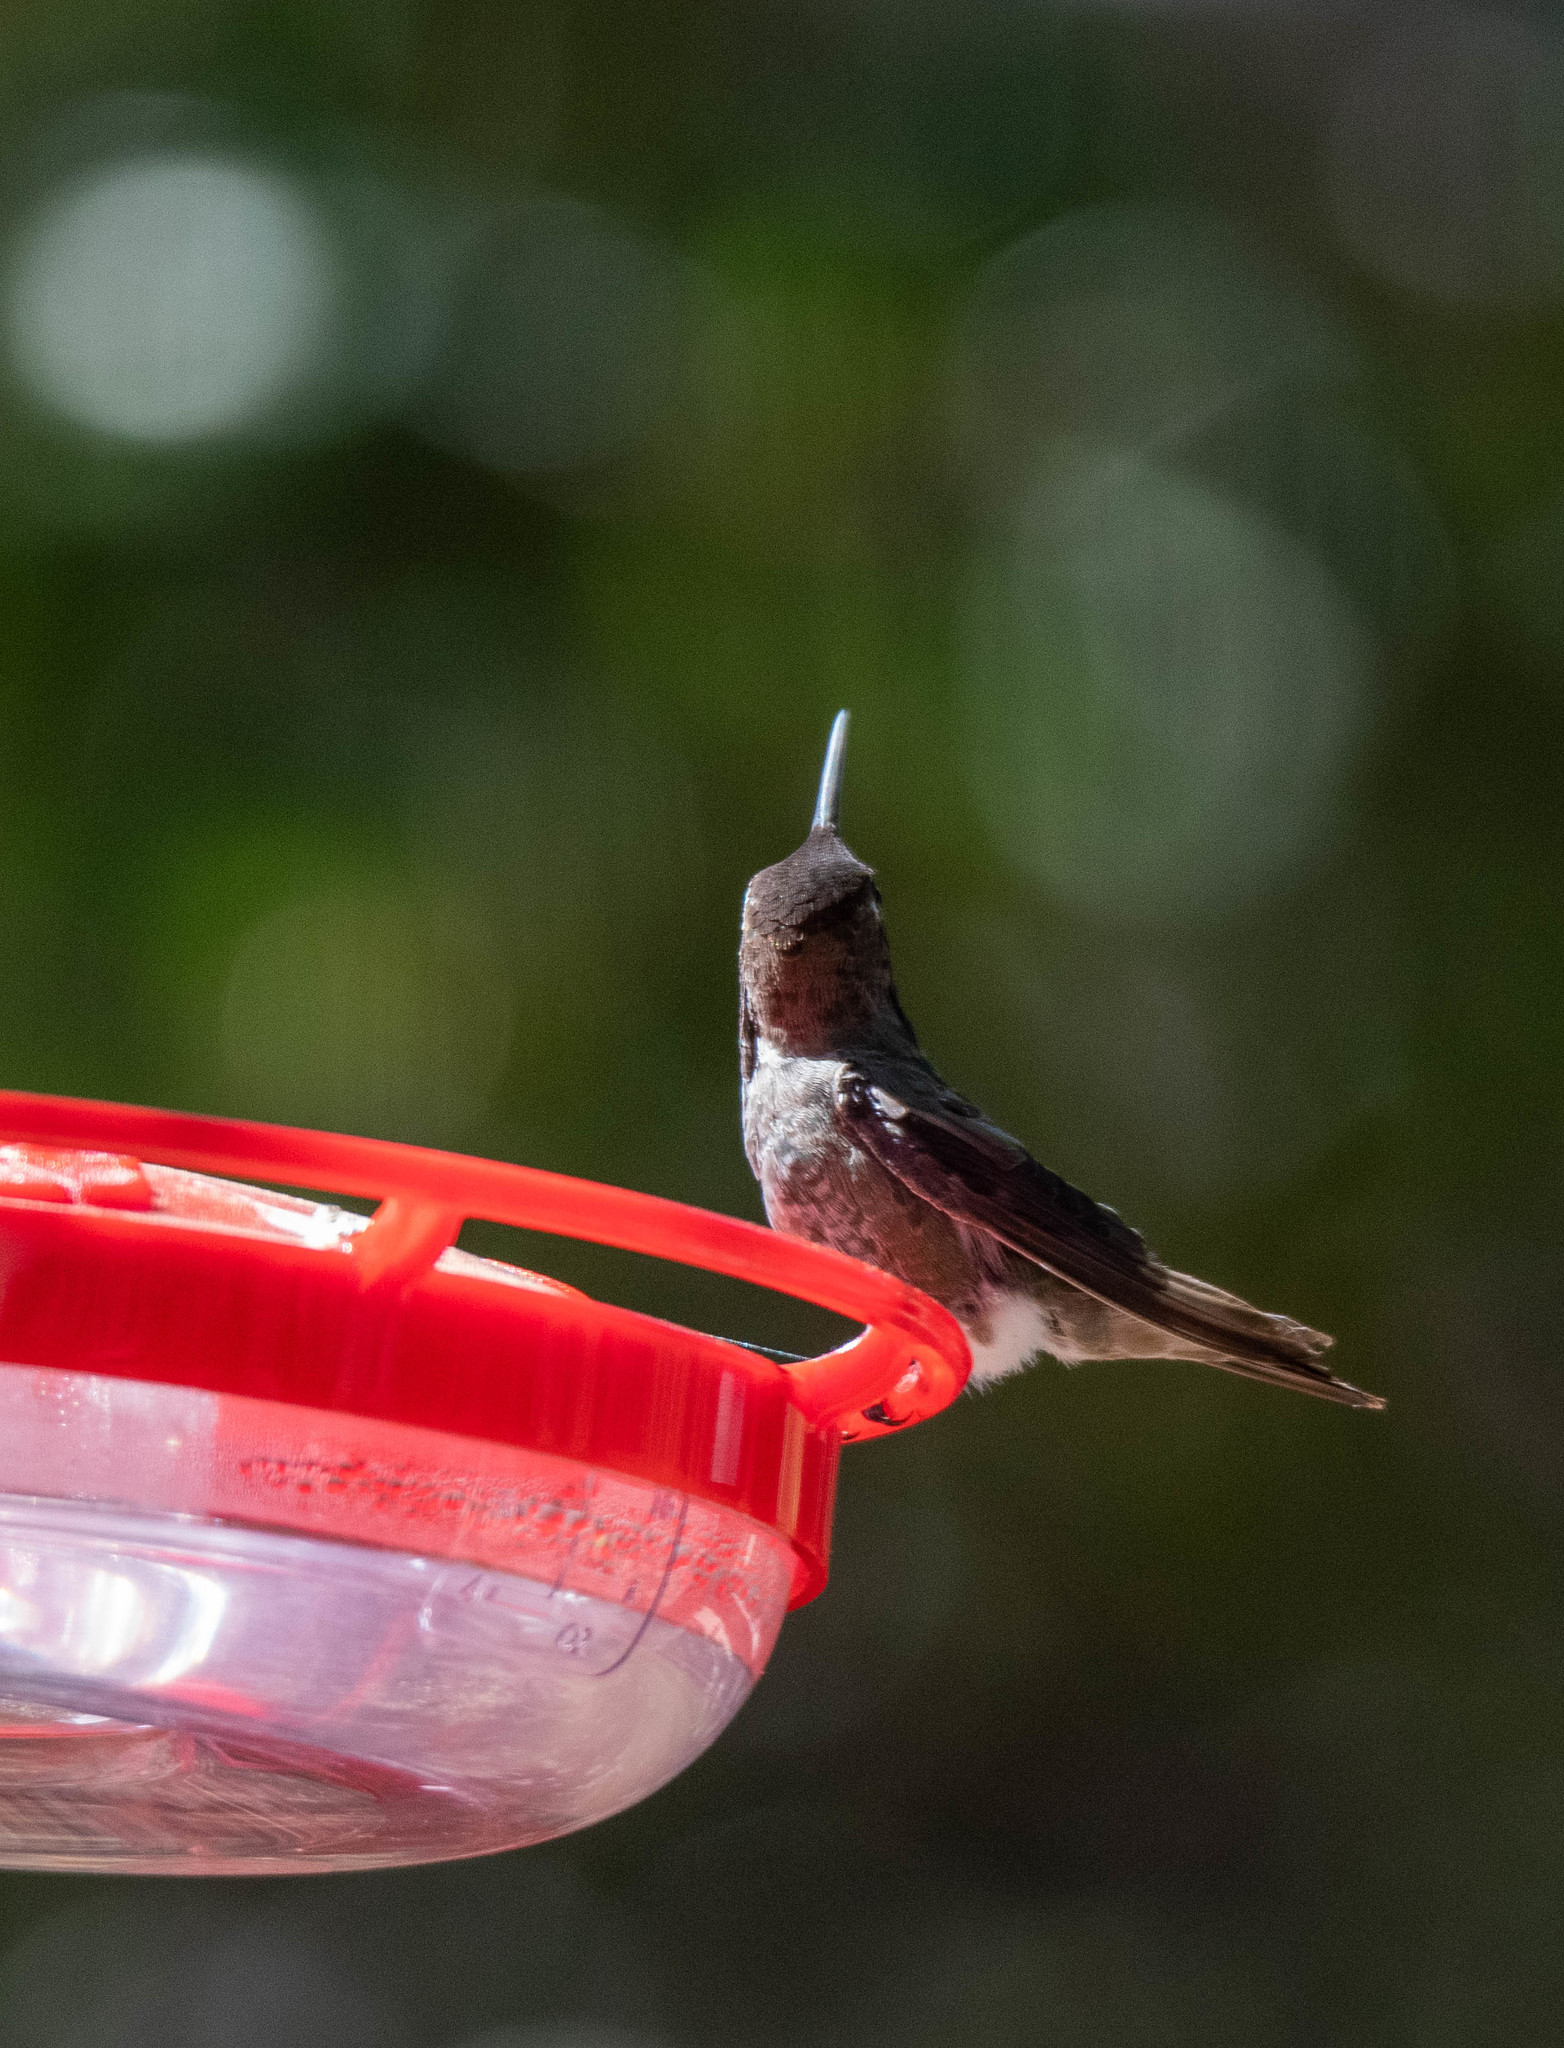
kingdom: Animalia
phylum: Chordata
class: Aves
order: Apodiformes
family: Trochilidae
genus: Calypte
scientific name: Calypte anna
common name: Anna's hummingbird
